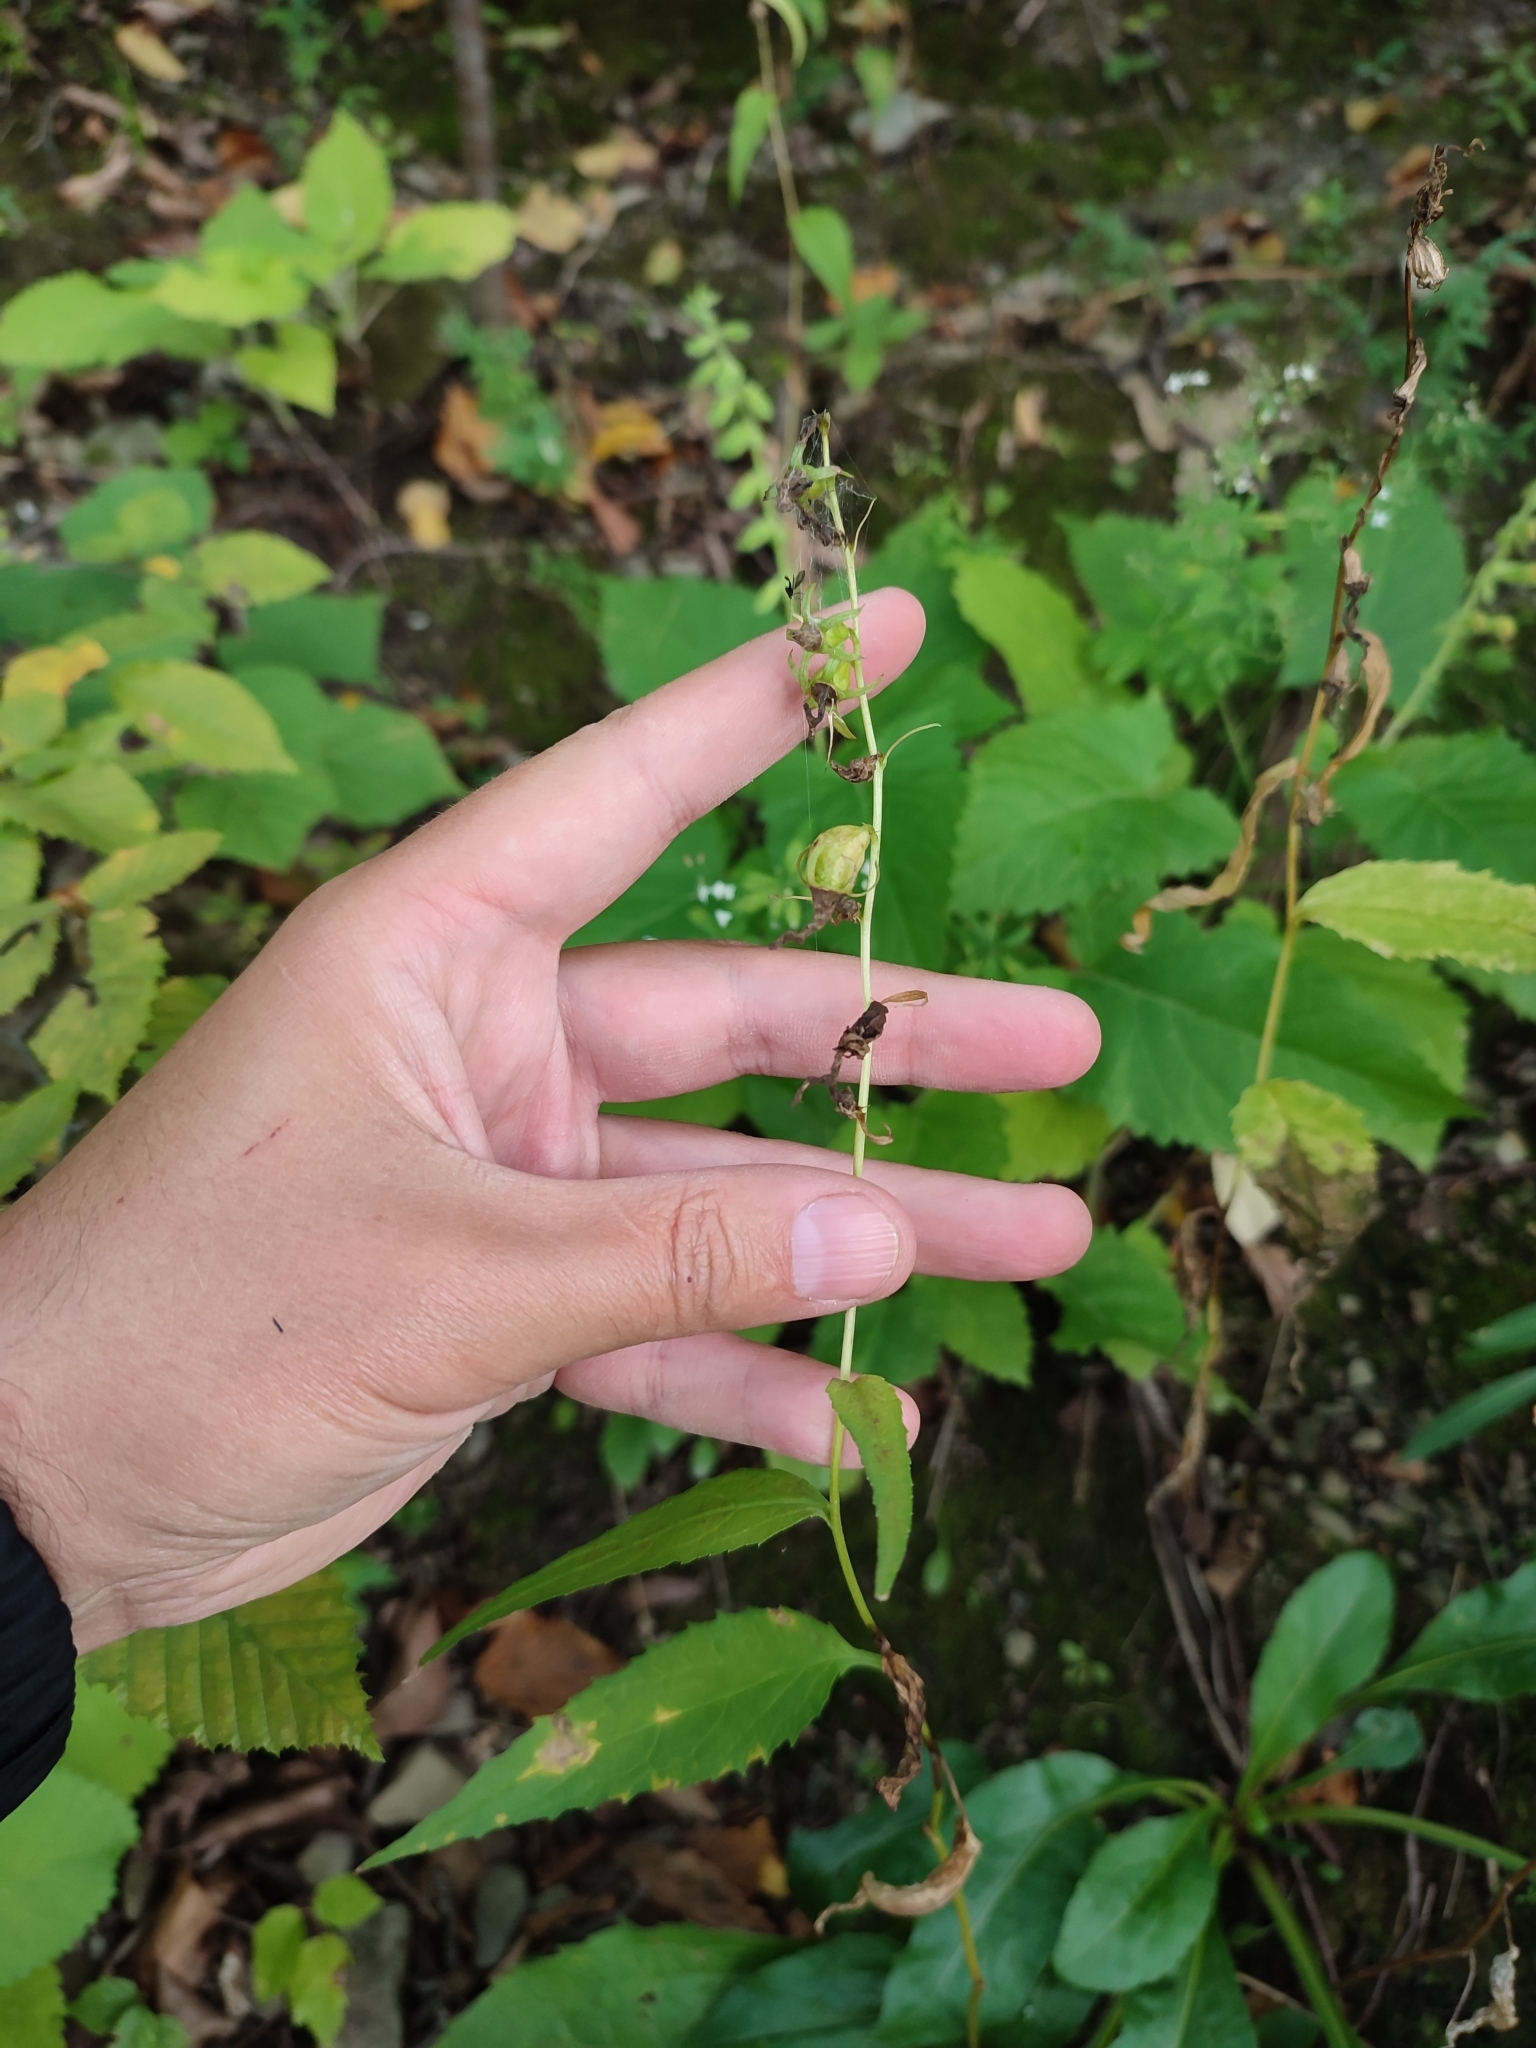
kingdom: Plantae
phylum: Tracheophyta
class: Magnoliopsida
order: Asterales
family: Campanulaceae
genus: Campanula
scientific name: Campanula rapunculoides
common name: Creeping bellflower
